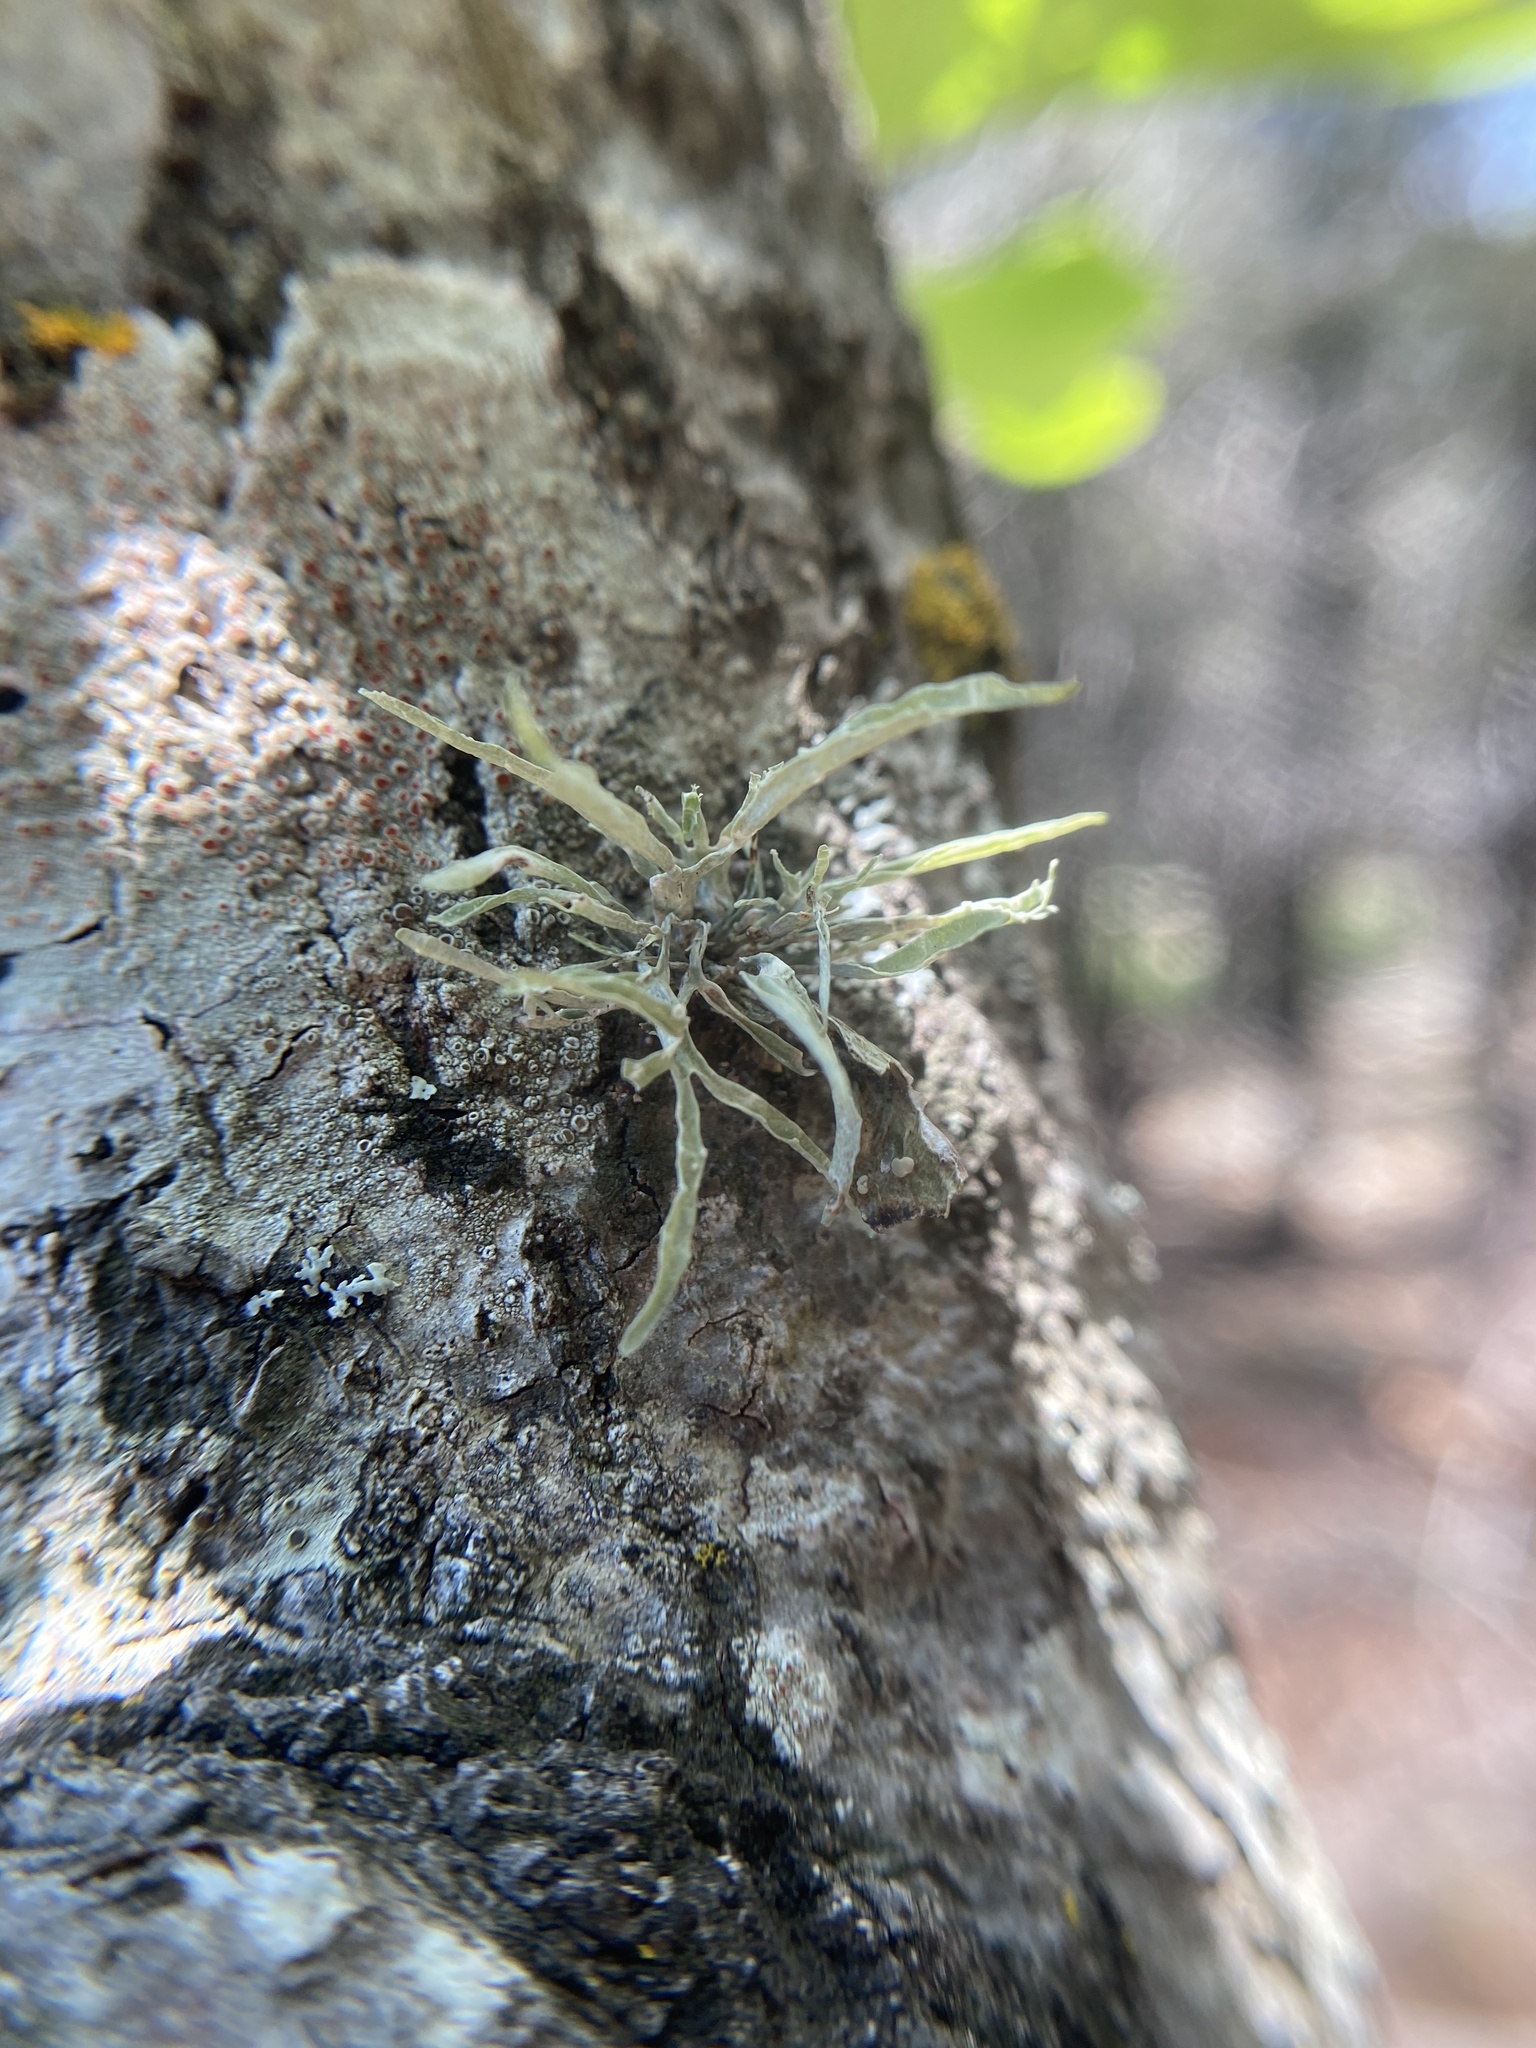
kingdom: Fungi
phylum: Ascomycota
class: Lecanoromycetes
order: Lecanorales
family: Ramalinaceae
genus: Ramalina
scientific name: Ramalina celastri
